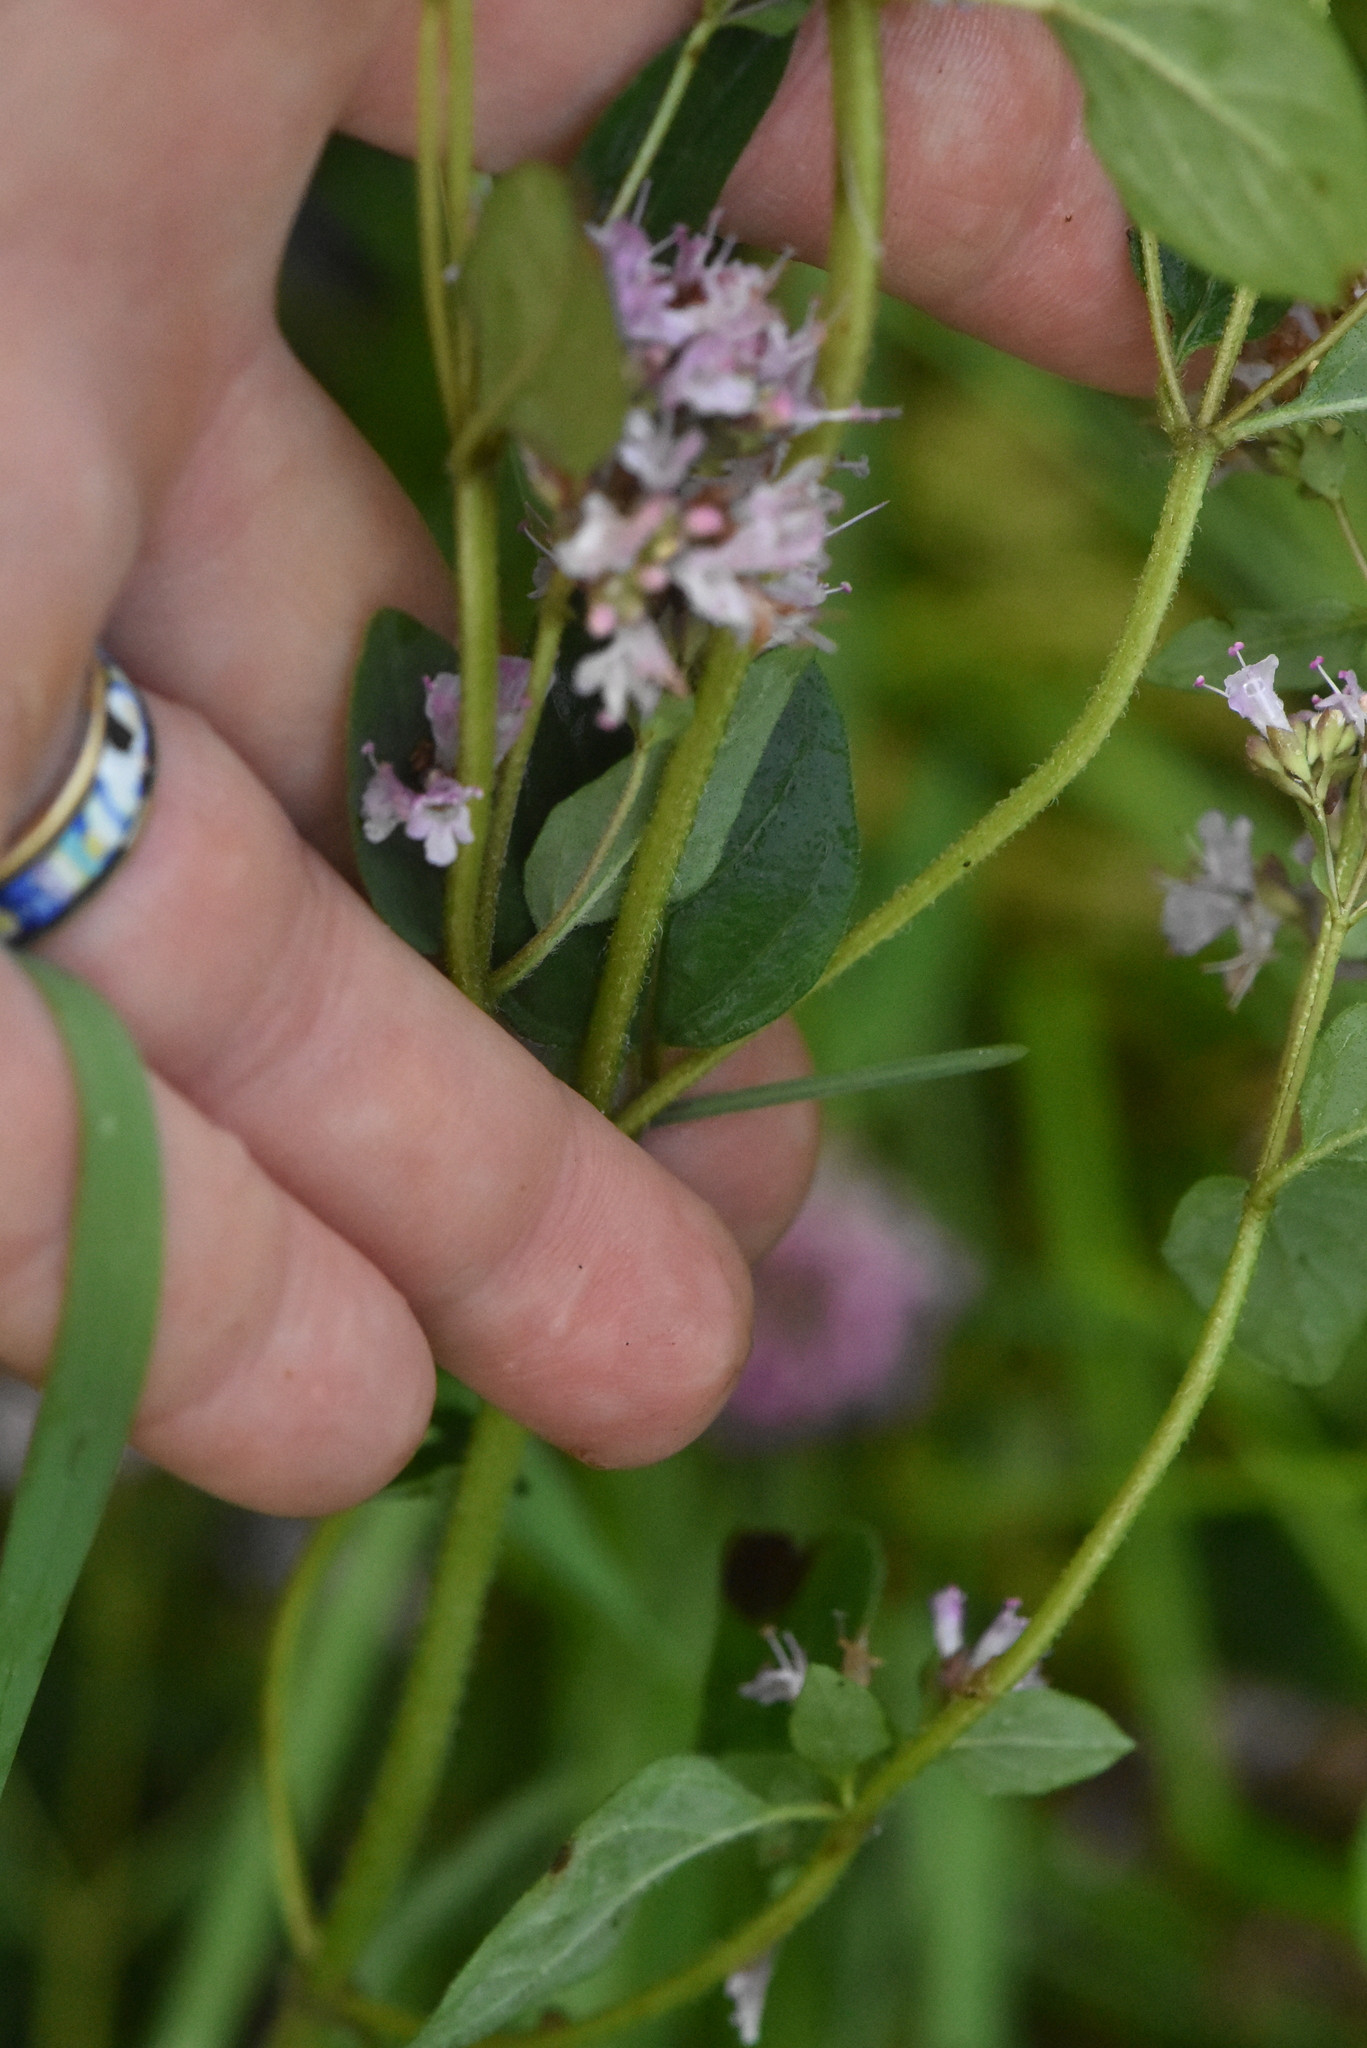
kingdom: Plantae
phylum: Tracheophyta
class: Magnoliopsida
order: Lamiales
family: Lamiaceae
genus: Origanum
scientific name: Origanum vulgare
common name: Wild marjoram
